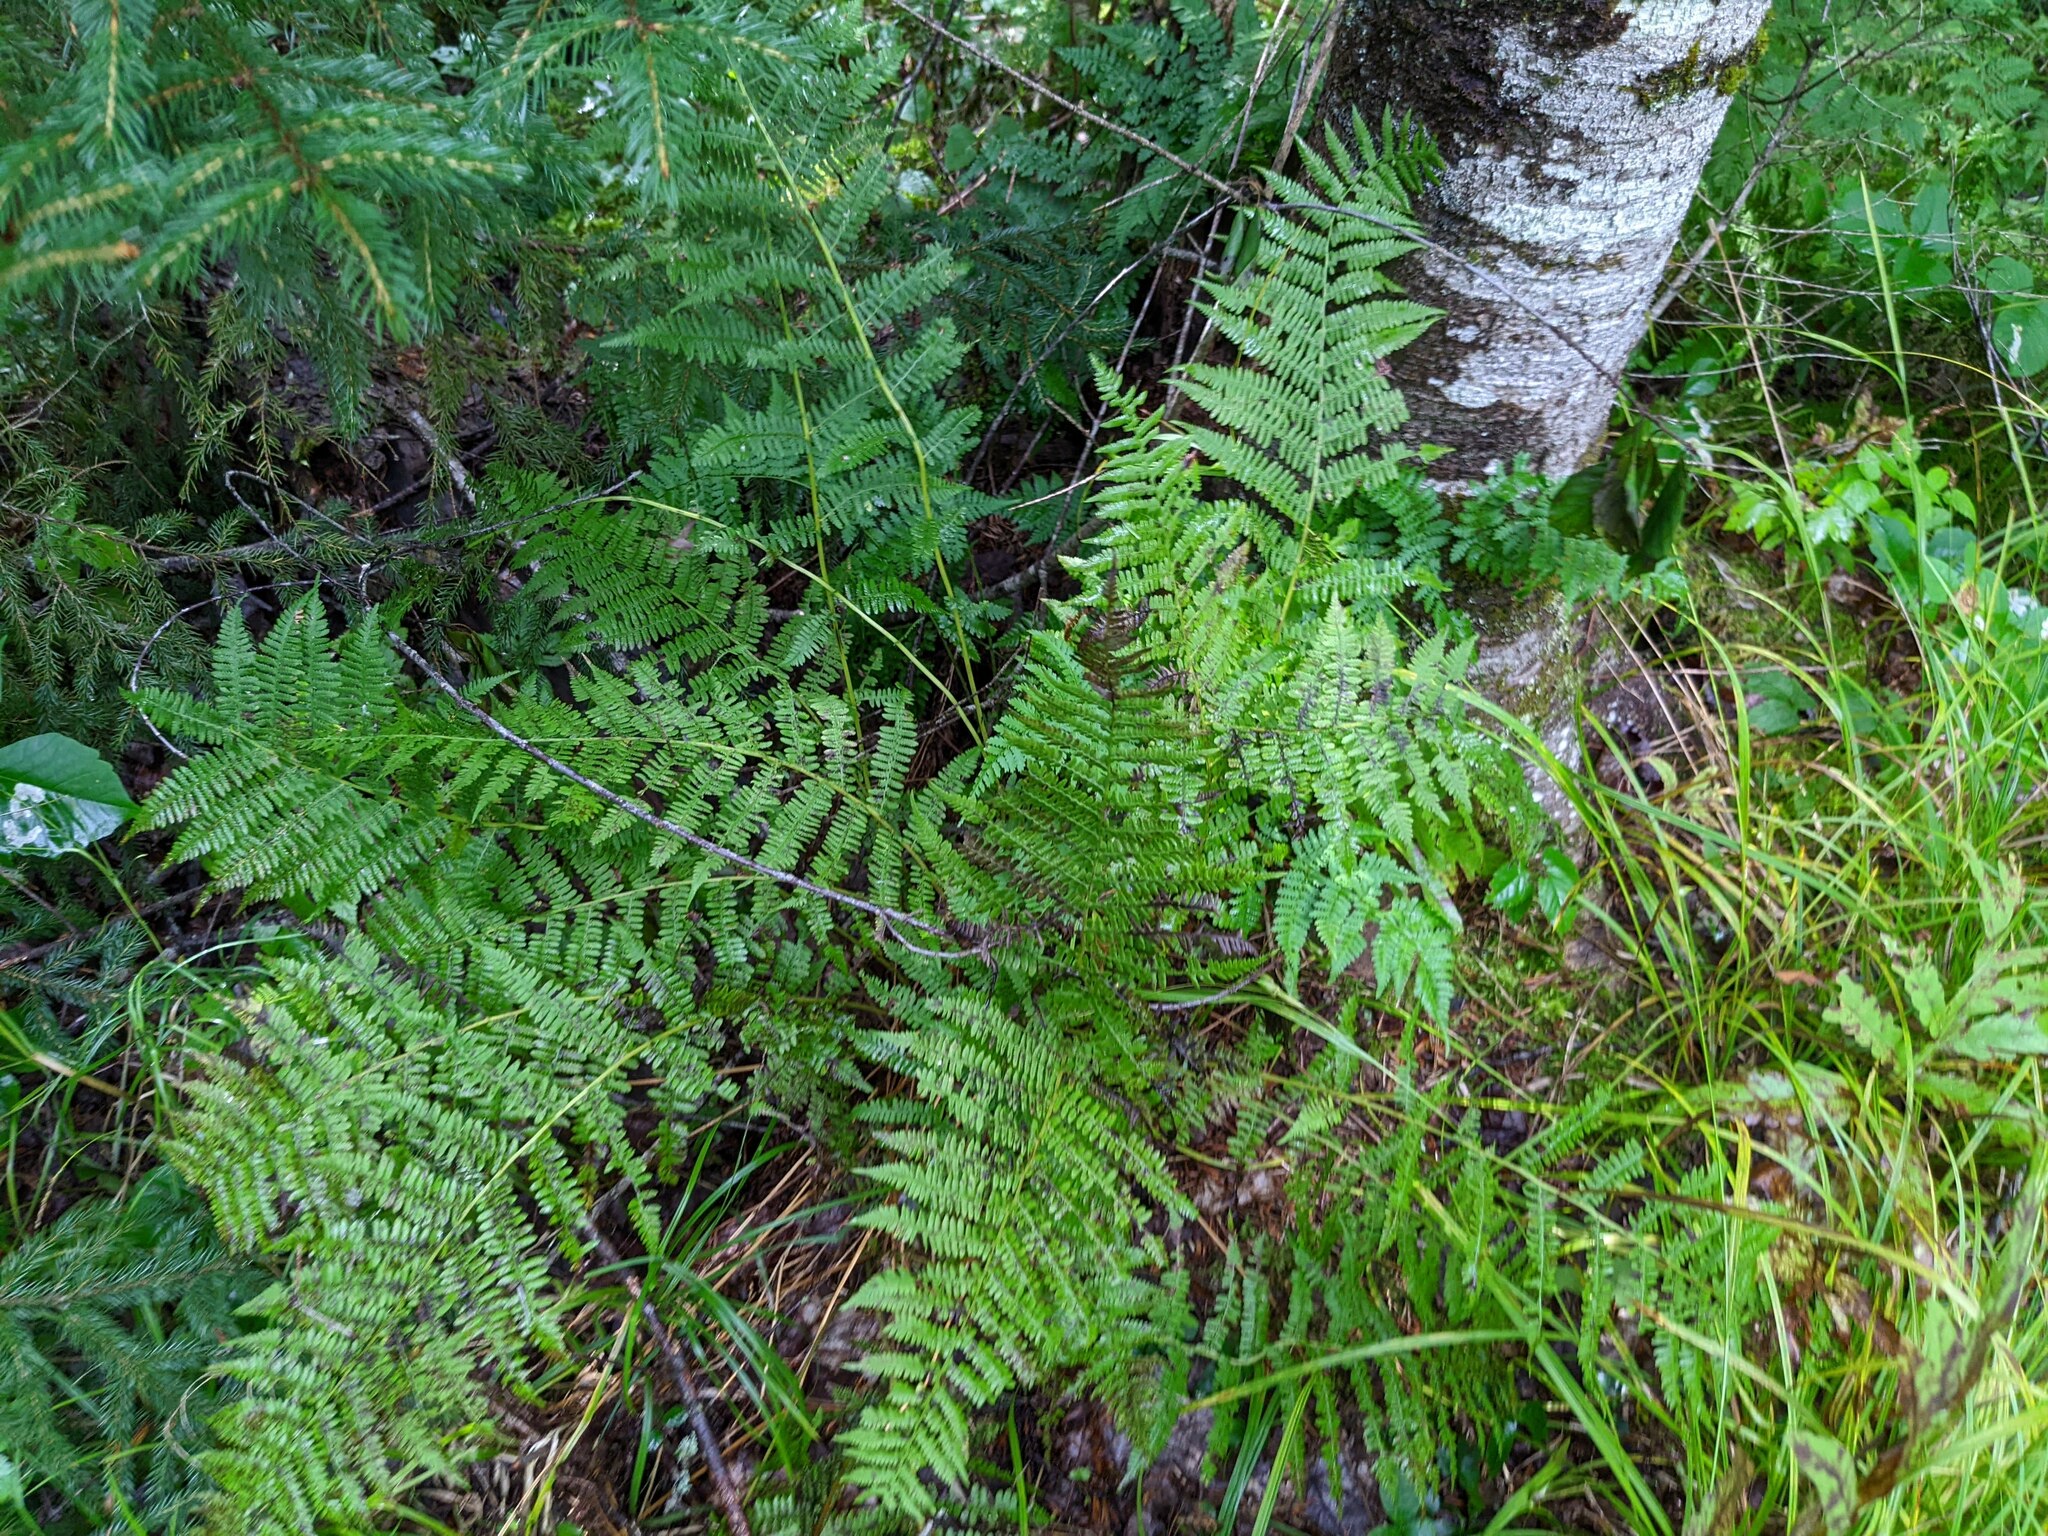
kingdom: Plantae
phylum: Tracheophyta
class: Polypodiopsida
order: Polypodiales
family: Athyriaceae
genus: Athyrium
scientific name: Athyrium angustum
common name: Northern lady fern
